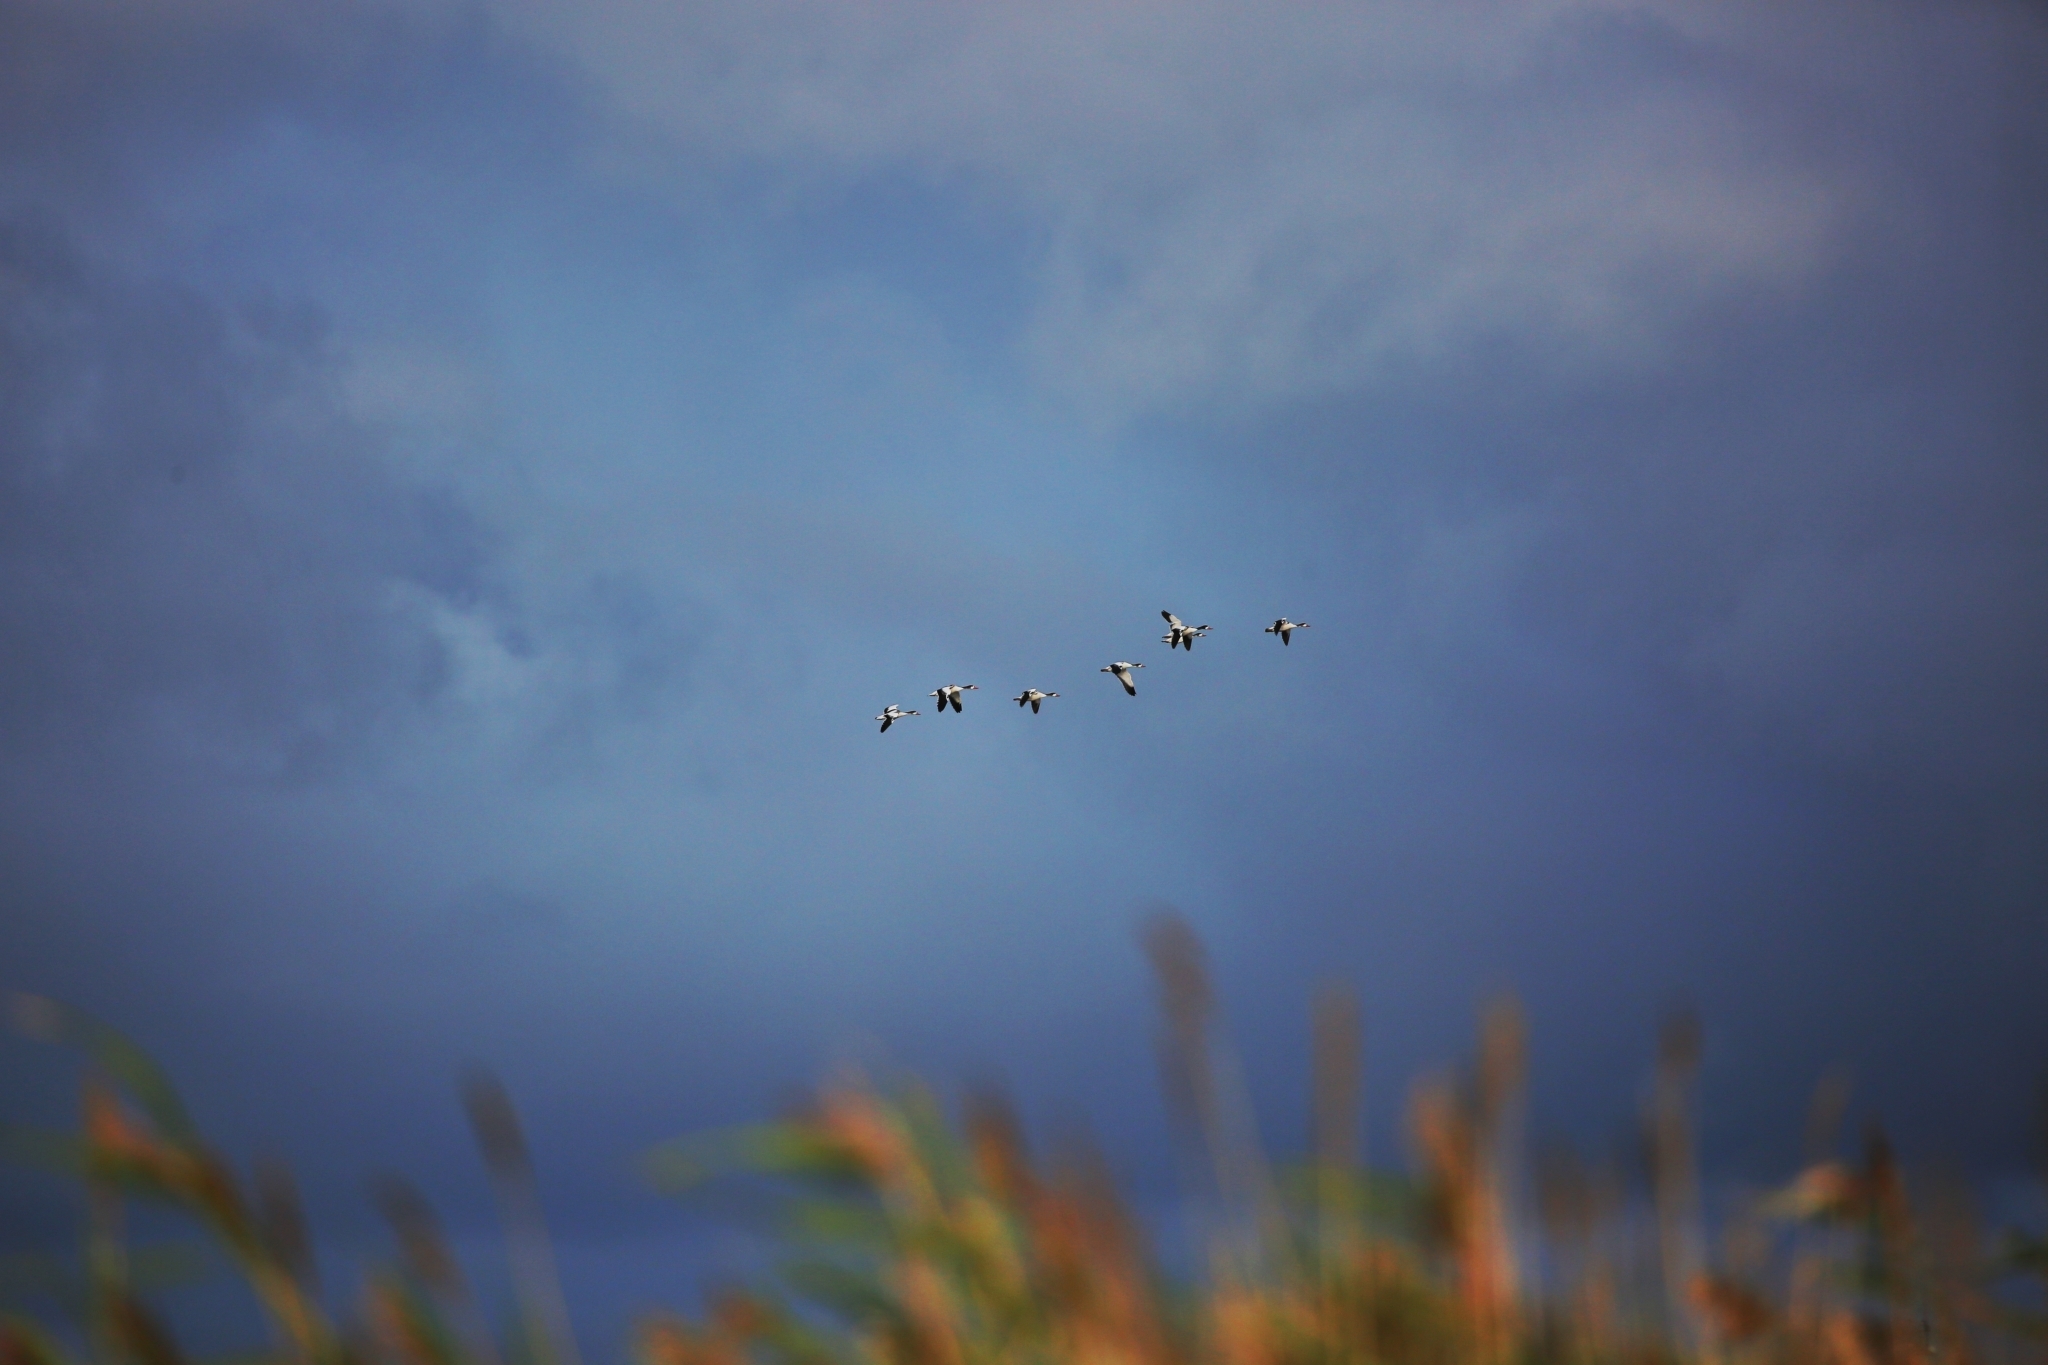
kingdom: Animalia
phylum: Chordata
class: Aves
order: Anseriformes
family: Anatidae
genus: Tadorna
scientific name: Tadorna tadorna
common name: Common shelduck
